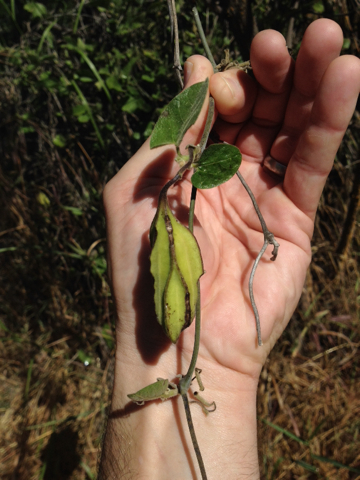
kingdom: Plantae
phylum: Tracheophyta
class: Magnoliopsida
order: Piperales
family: Aristolochiaceae
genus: Isotrema
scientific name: Isotrema californicum
